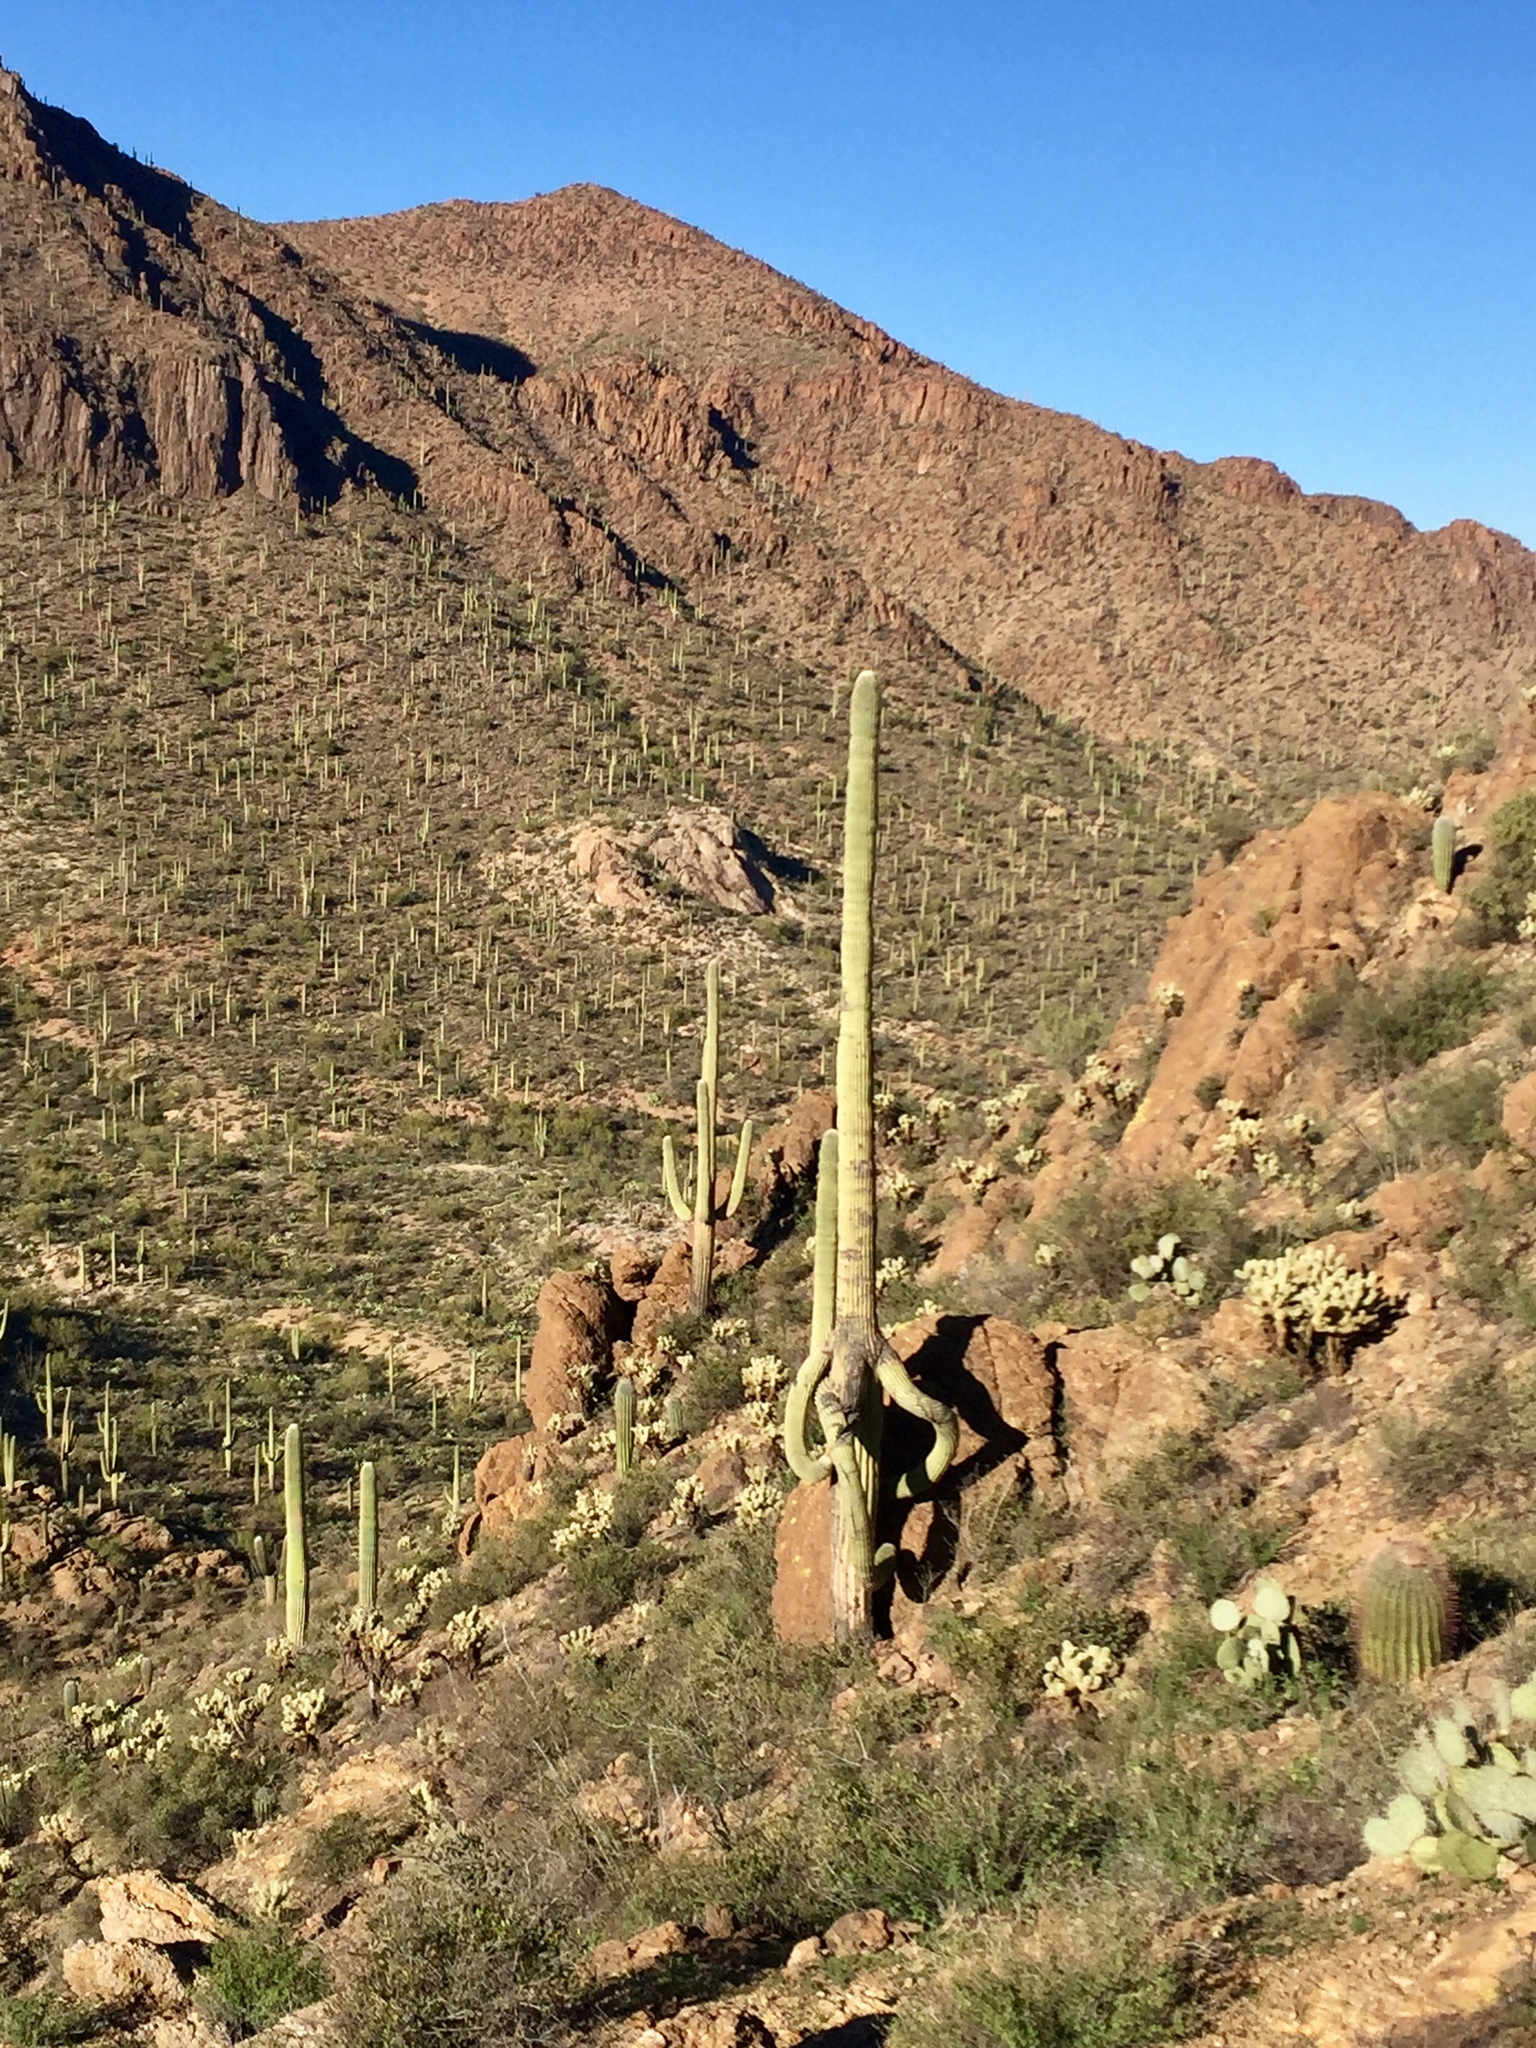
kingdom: Plantae
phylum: Tracheophyta
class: Magnoliopsida
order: Caryophyllales
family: Cactaceae
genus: Carnegiea
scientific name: Carnegiea gigantea
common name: Saguaro
